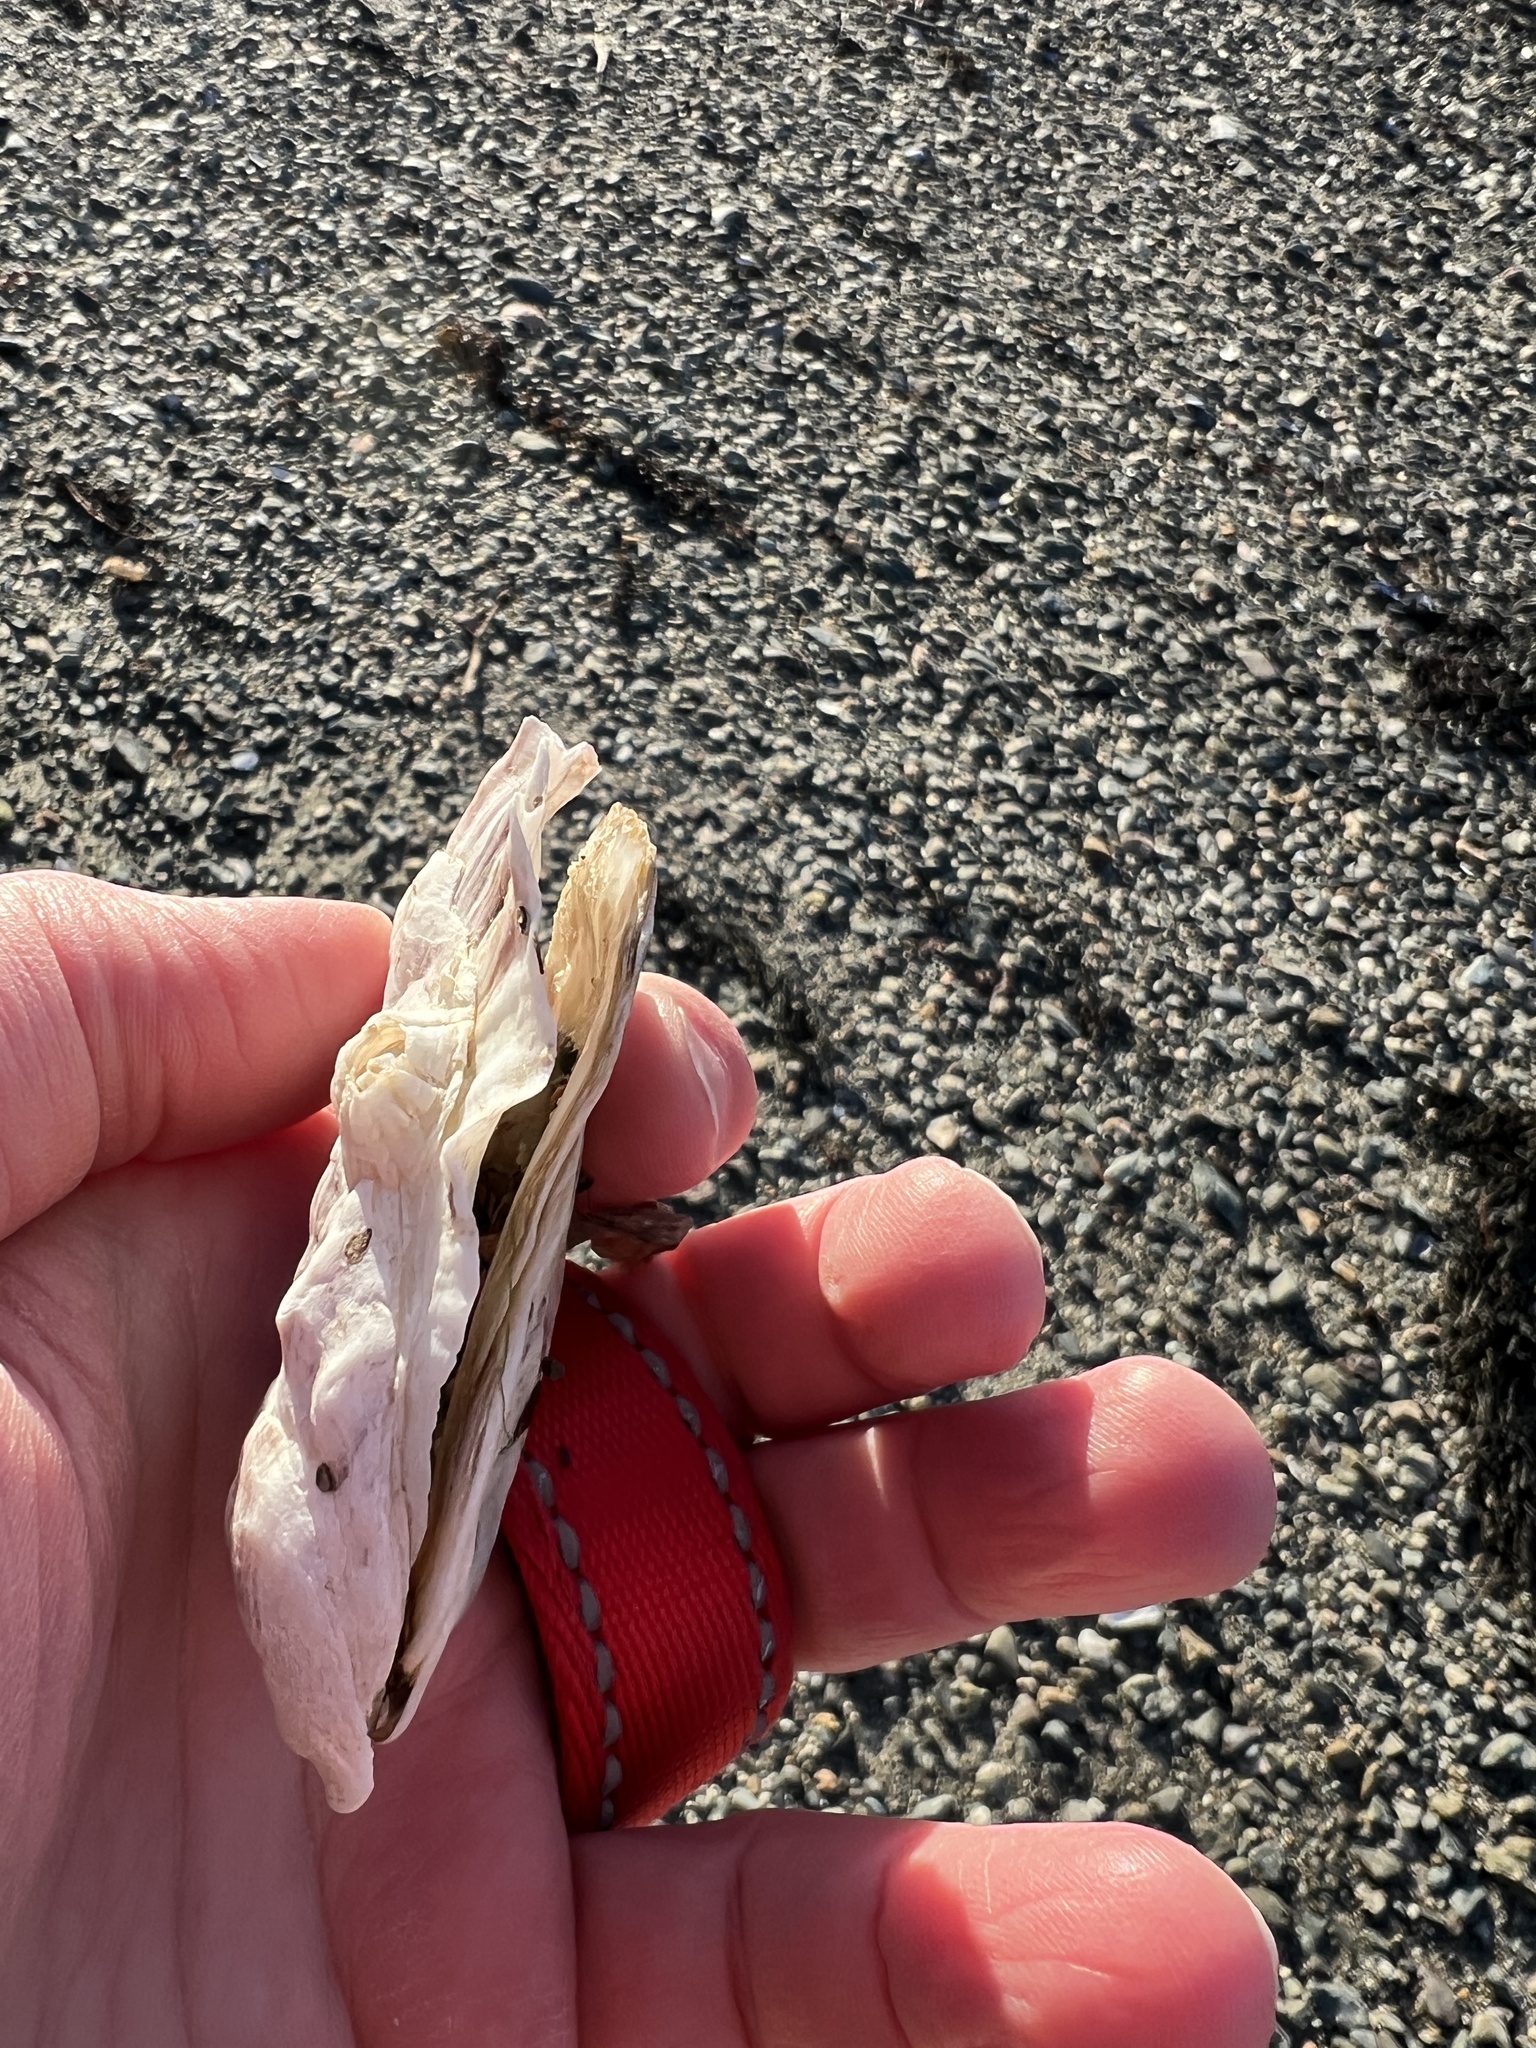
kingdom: Animalia
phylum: Mollusca
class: Bivalvia
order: Ostreida
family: Ostreidae
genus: Crassostrea
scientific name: Crassostrea virginica
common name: American oyster
